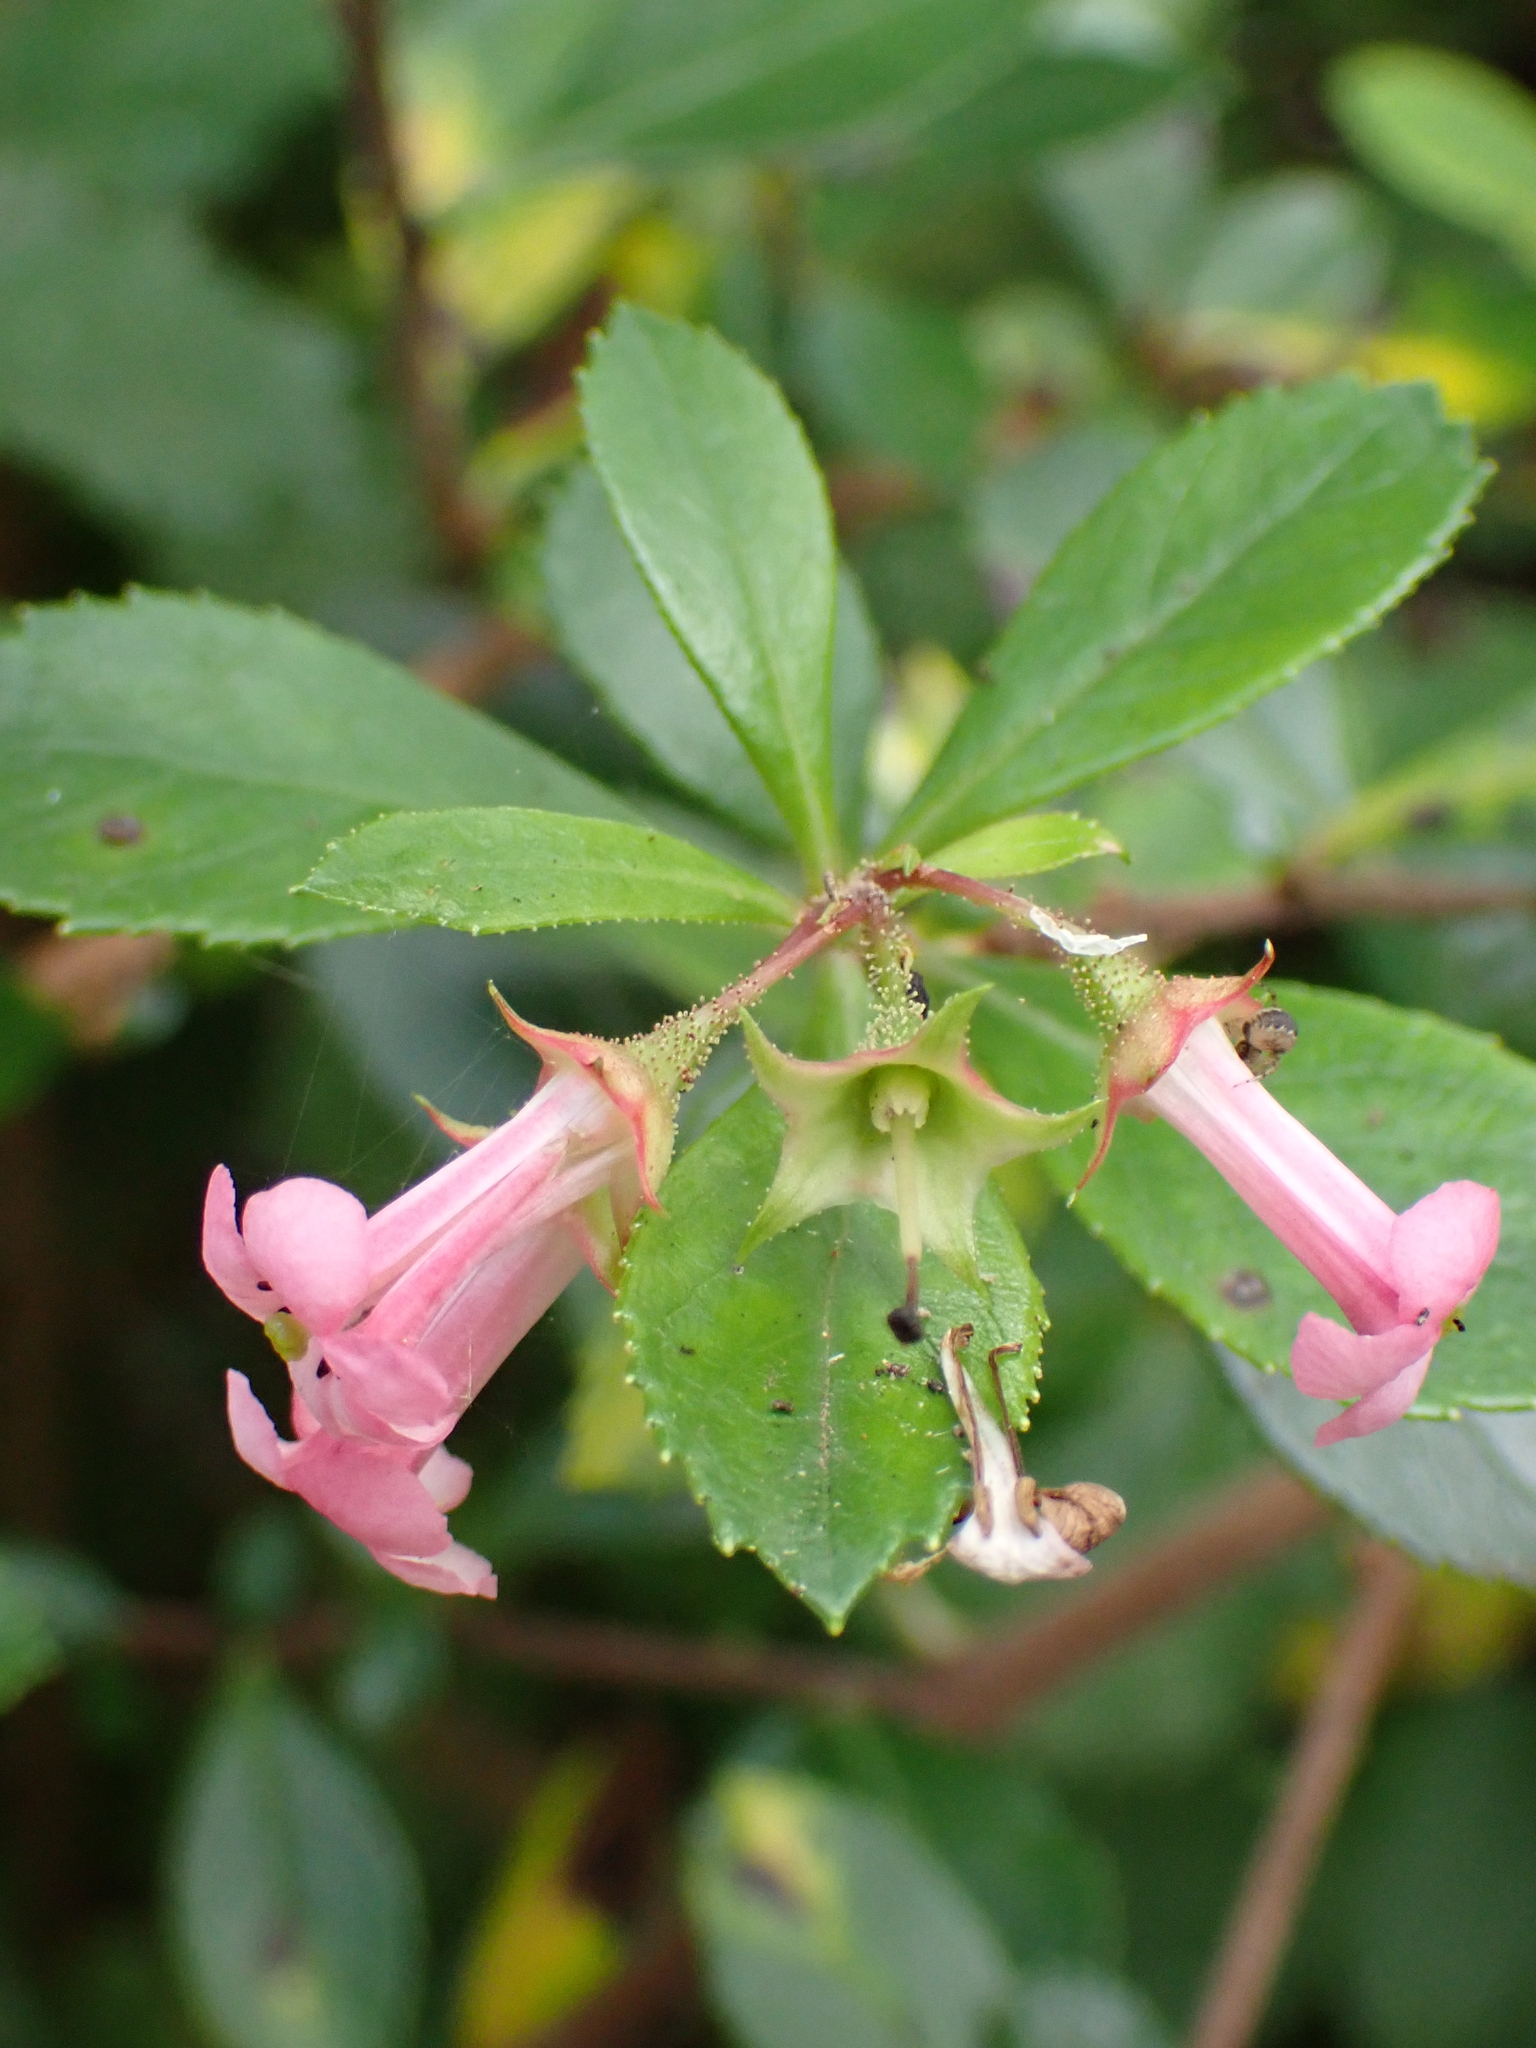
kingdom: Plantae
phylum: Tracheophyta
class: Magnoliopsida
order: Escalloniales
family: Escalloniaceae
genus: Escallonia
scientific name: Escallonia rubra
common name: Redclaws
